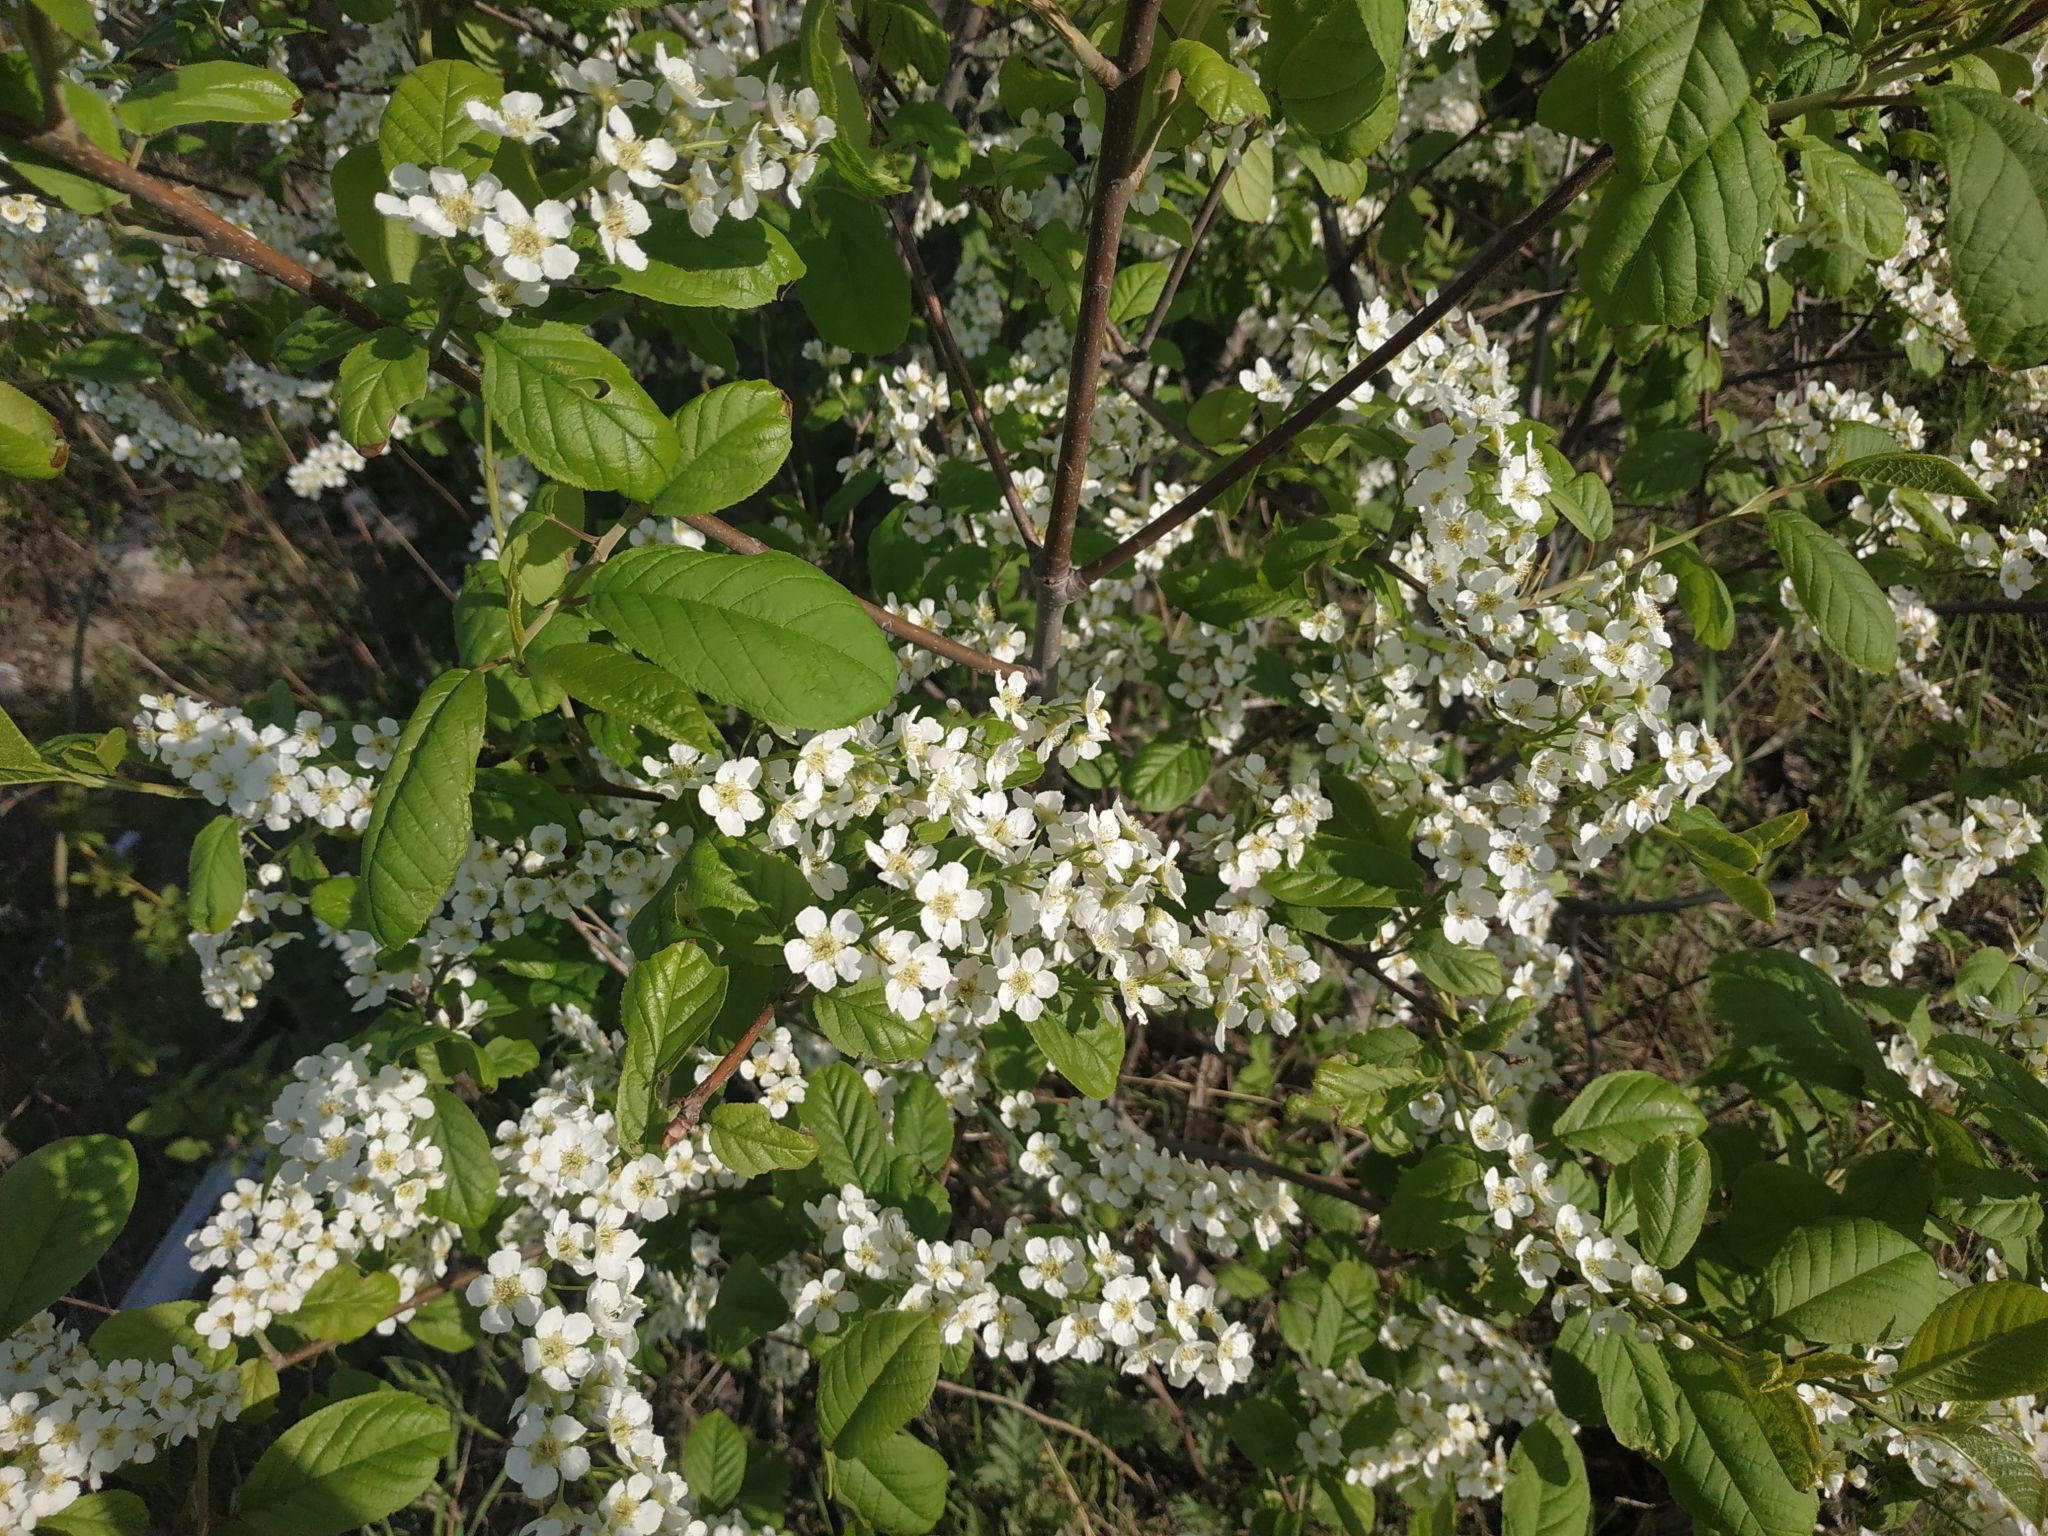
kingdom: Plantae
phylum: Tracheophyta
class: Magnoliopsida
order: Rosales
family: Rosaceae
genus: Prunus
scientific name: Prunus padus
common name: Bird cherry
